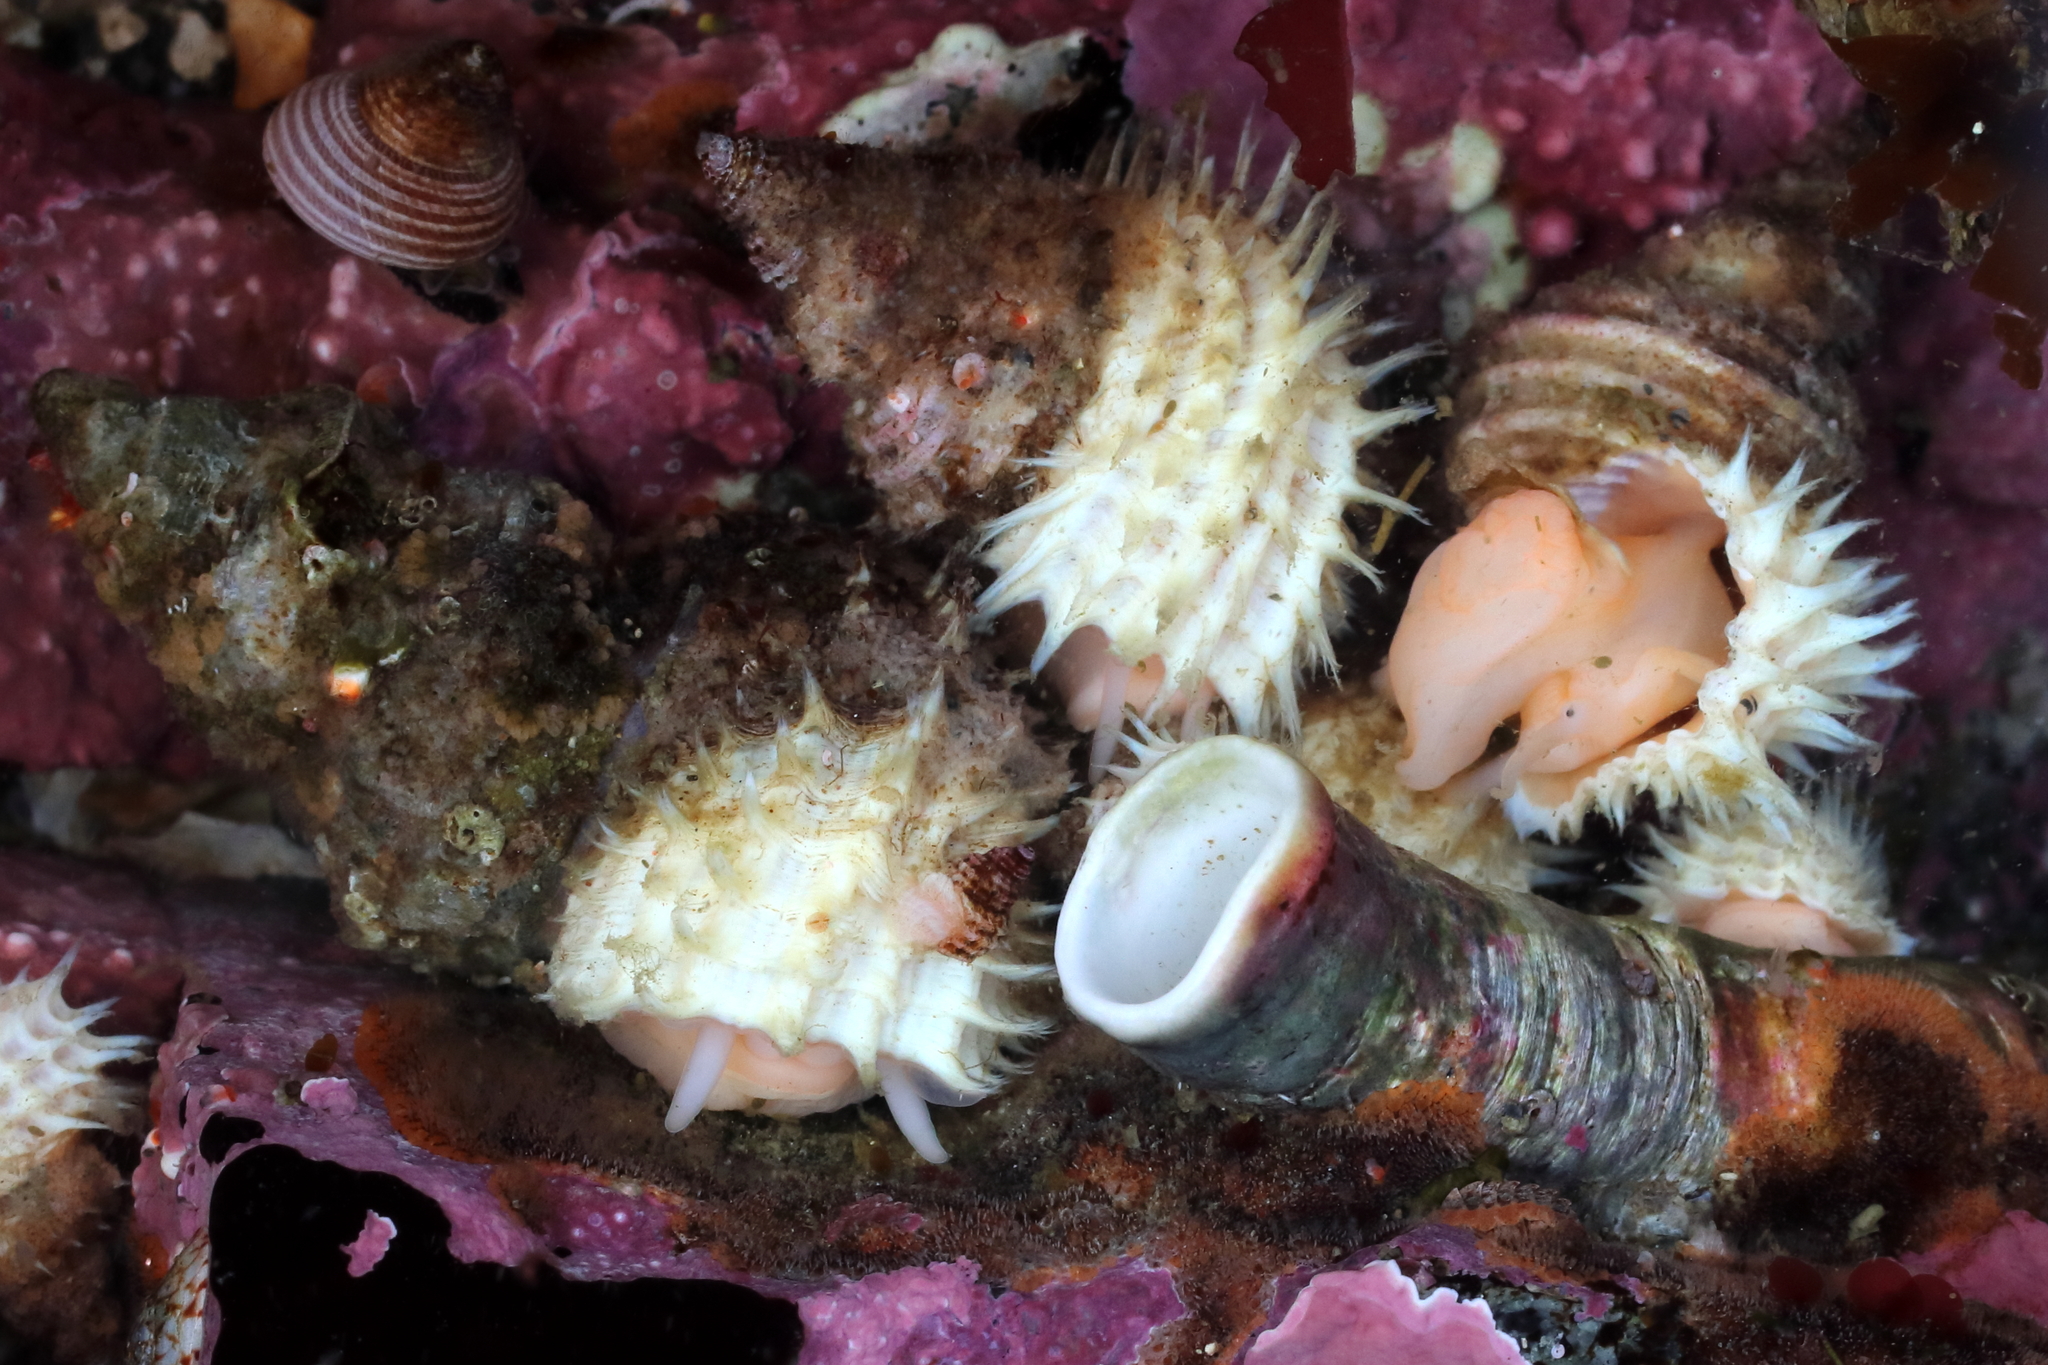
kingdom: Animalia
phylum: Mollusca
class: Gastropoda
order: Littorinimorpha
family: Capulidae
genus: Trichotropis
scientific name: Trichotropis cancellata
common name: Cancellate hairysnail
